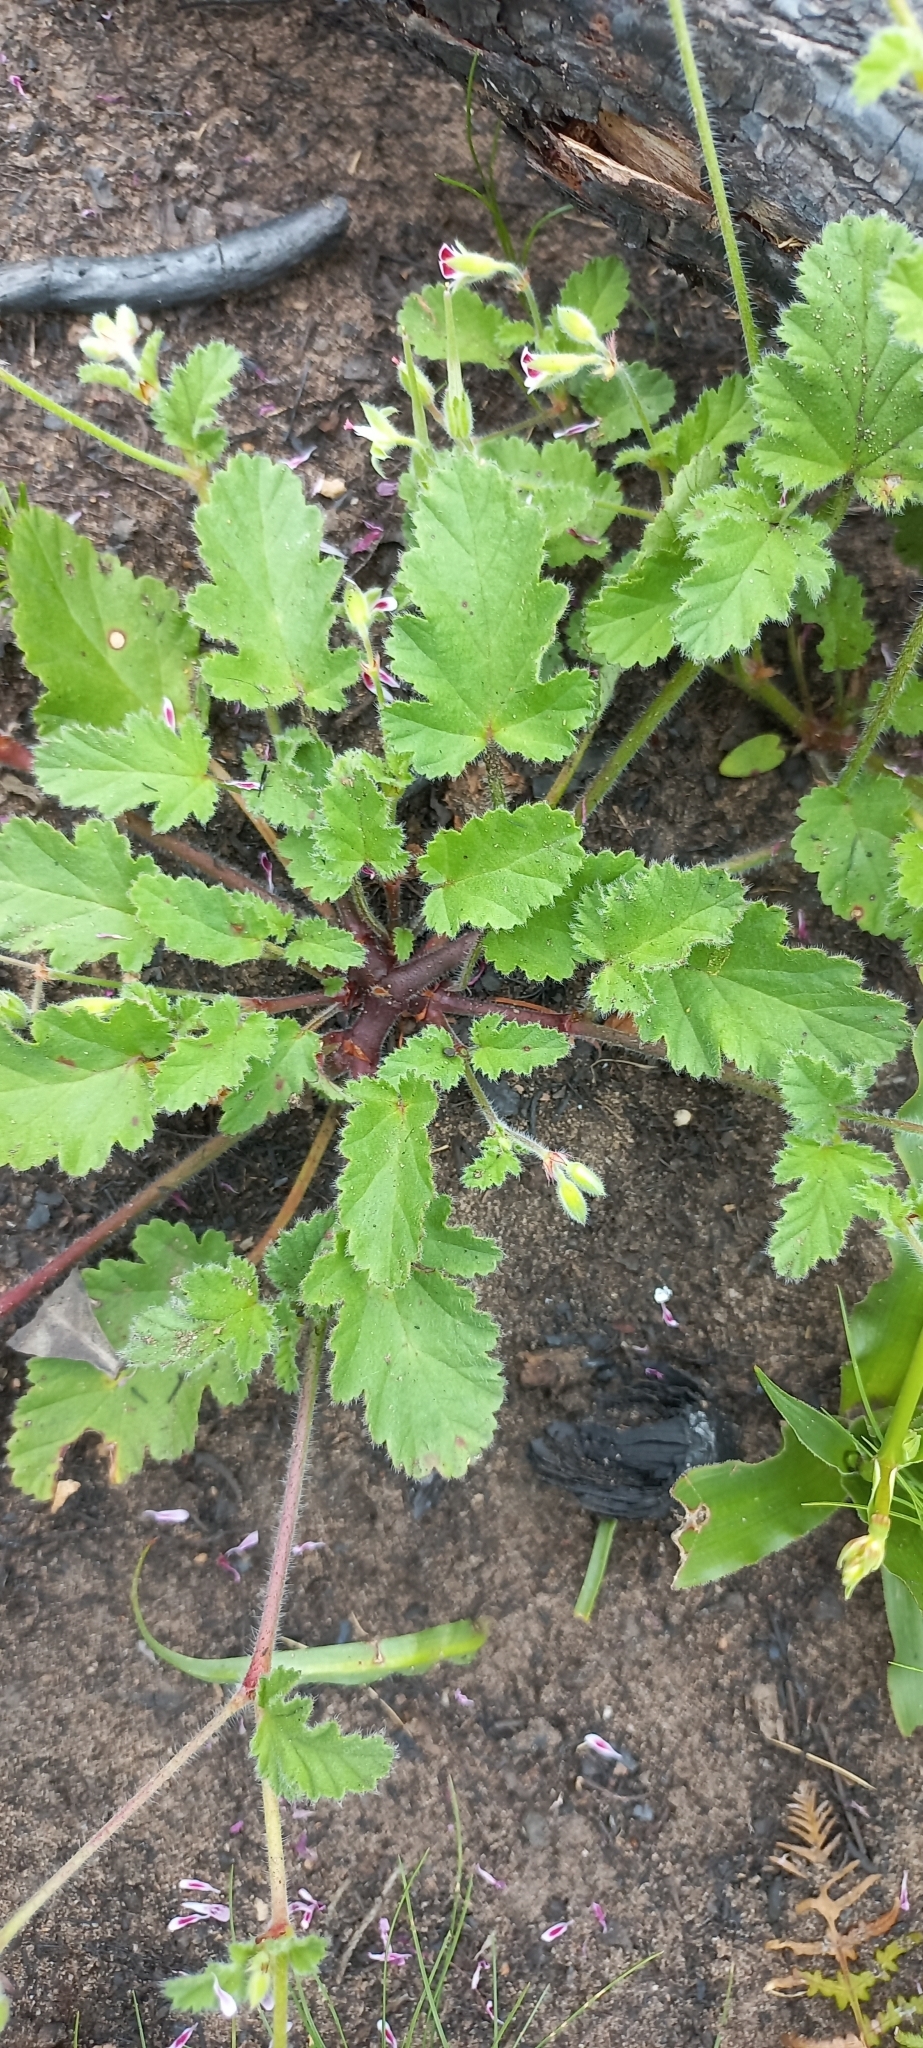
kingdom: Plantae
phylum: Tracheophyta
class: Magnoliopsida
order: Geraniales
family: Geraniaceae
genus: Pelargonium
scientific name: Pelargonium althaeoides
